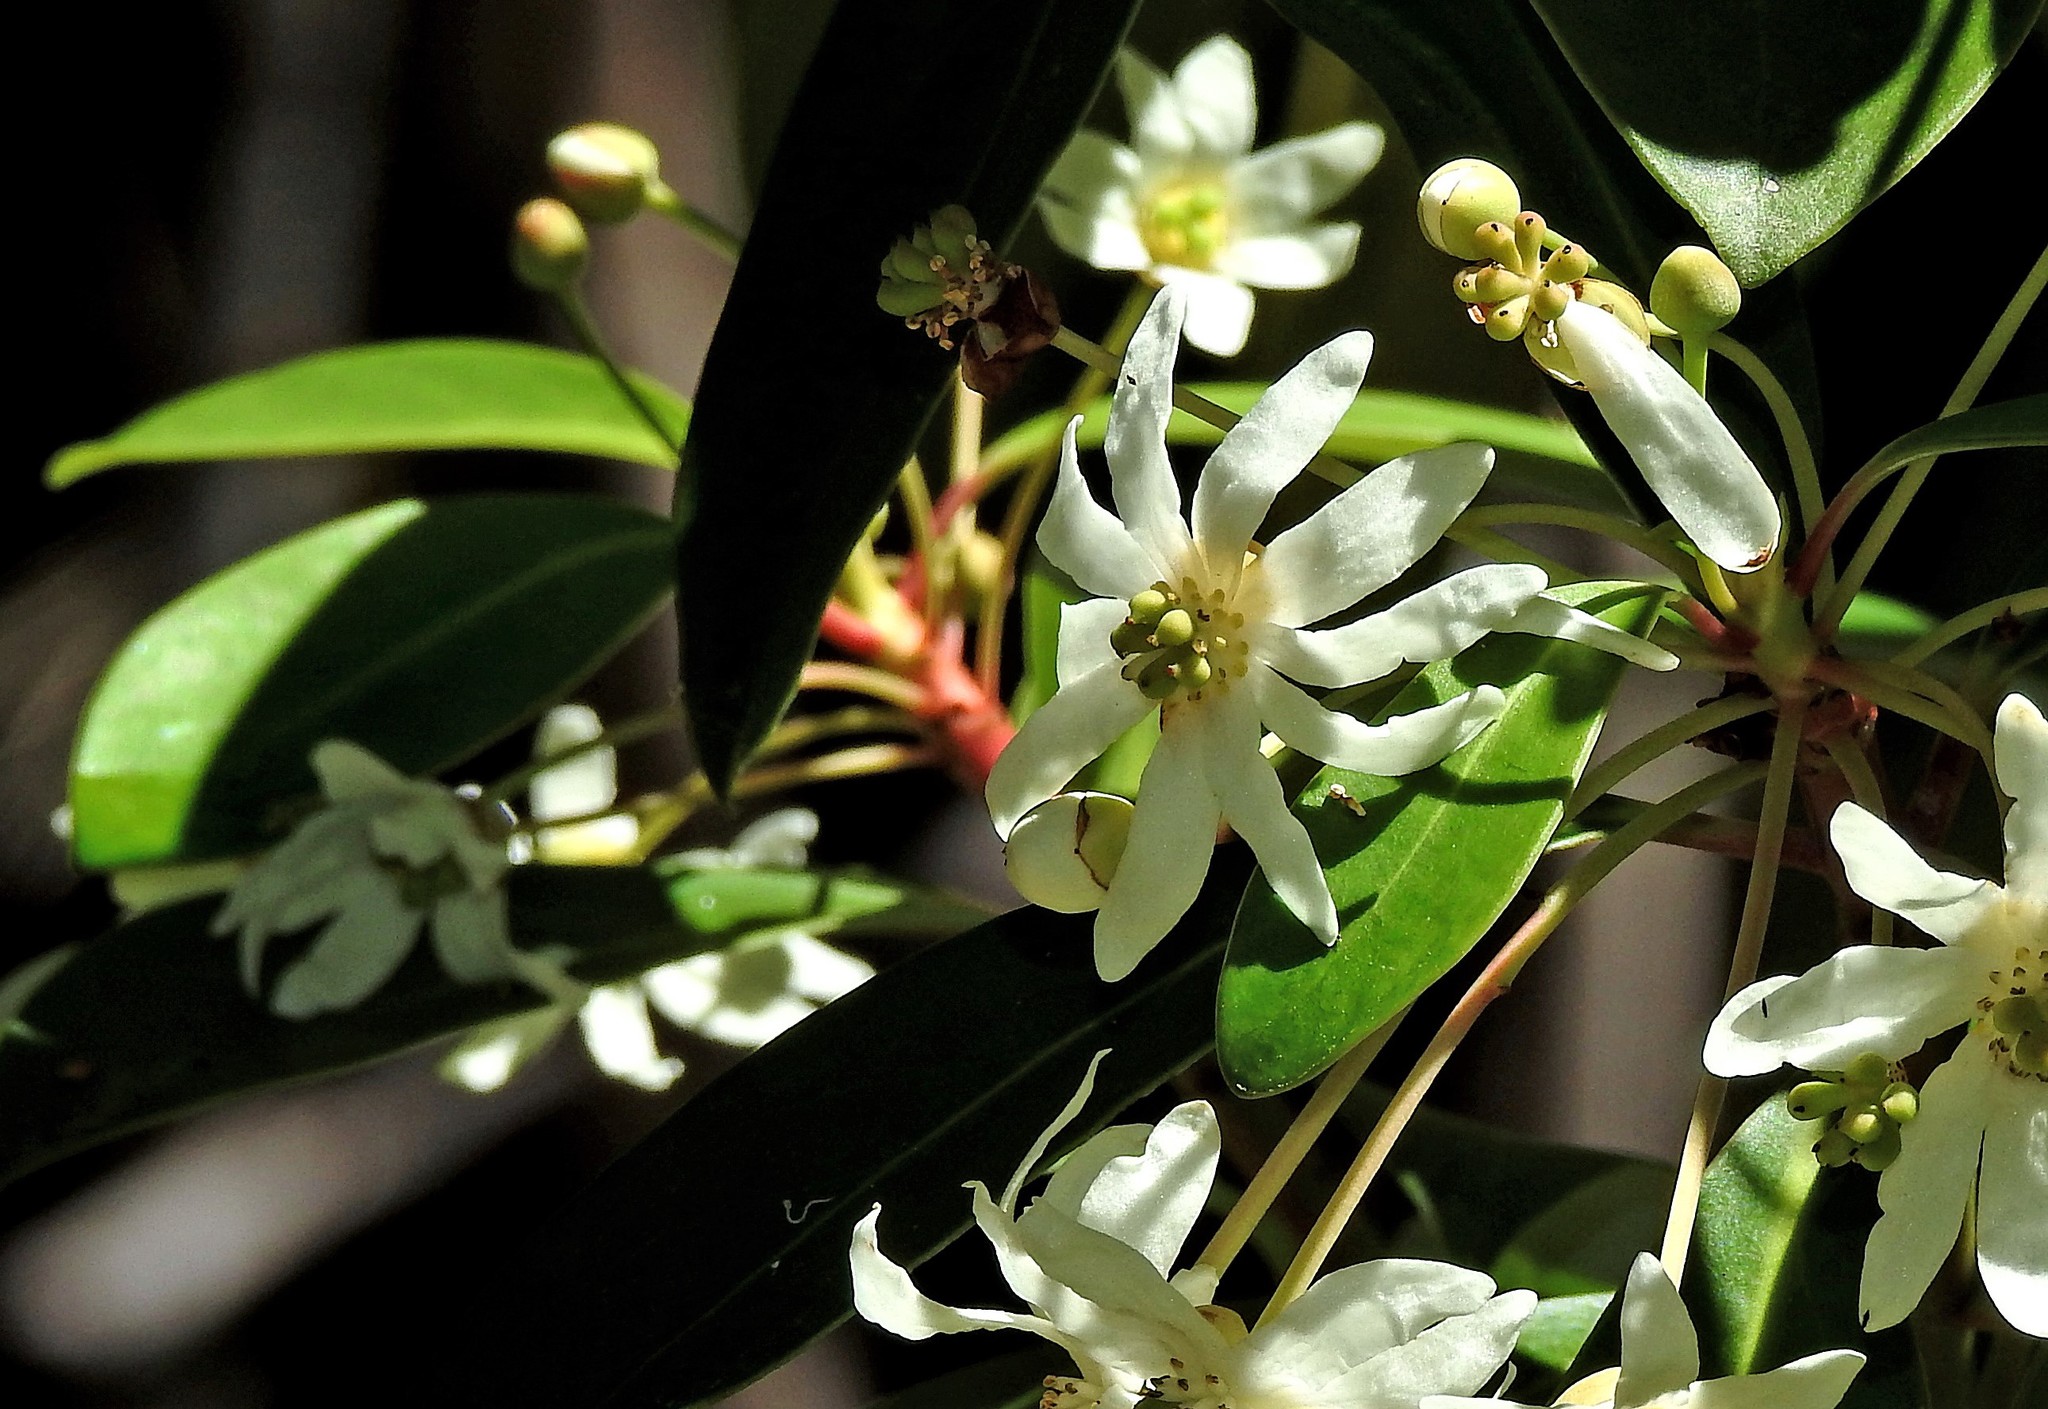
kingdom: Plantae
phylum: Tracheophyta
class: Magnoliopsida
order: Canellales
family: Winteraceae
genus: Drimys
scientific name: Drimys winteri
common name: Winter's-bark
